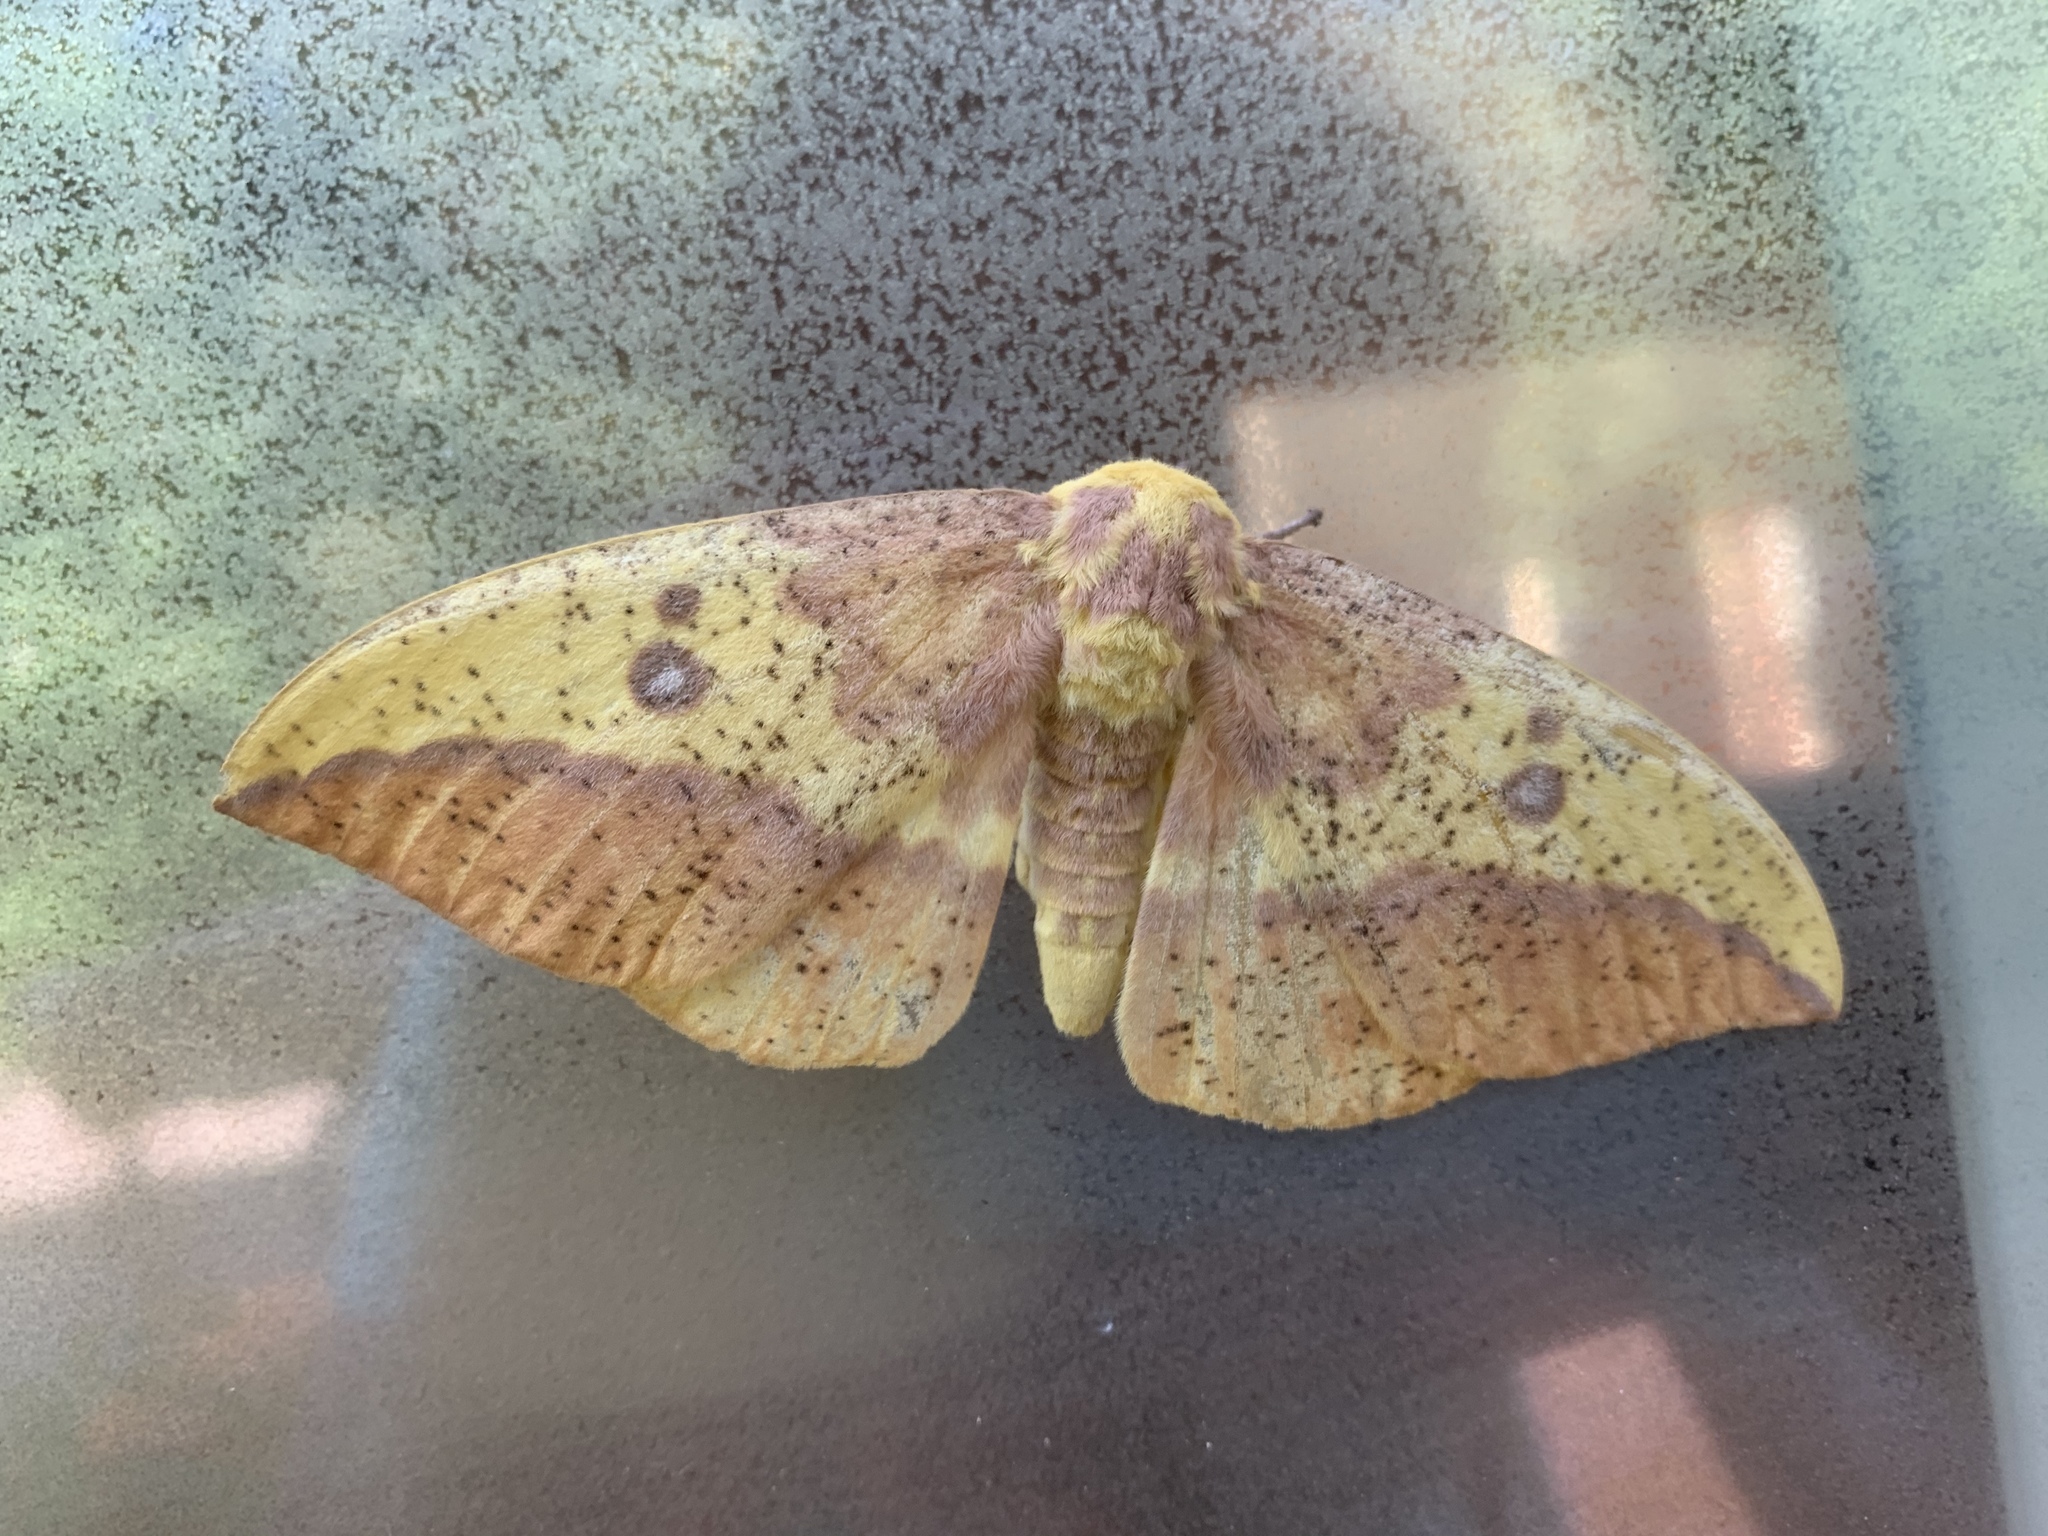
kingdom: Animalia
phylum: Arthropoda
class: Insecta
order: Lepidoptera
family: Saturniidae
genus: Eacles
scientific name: Eacles imperialis
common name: Imperial moth
